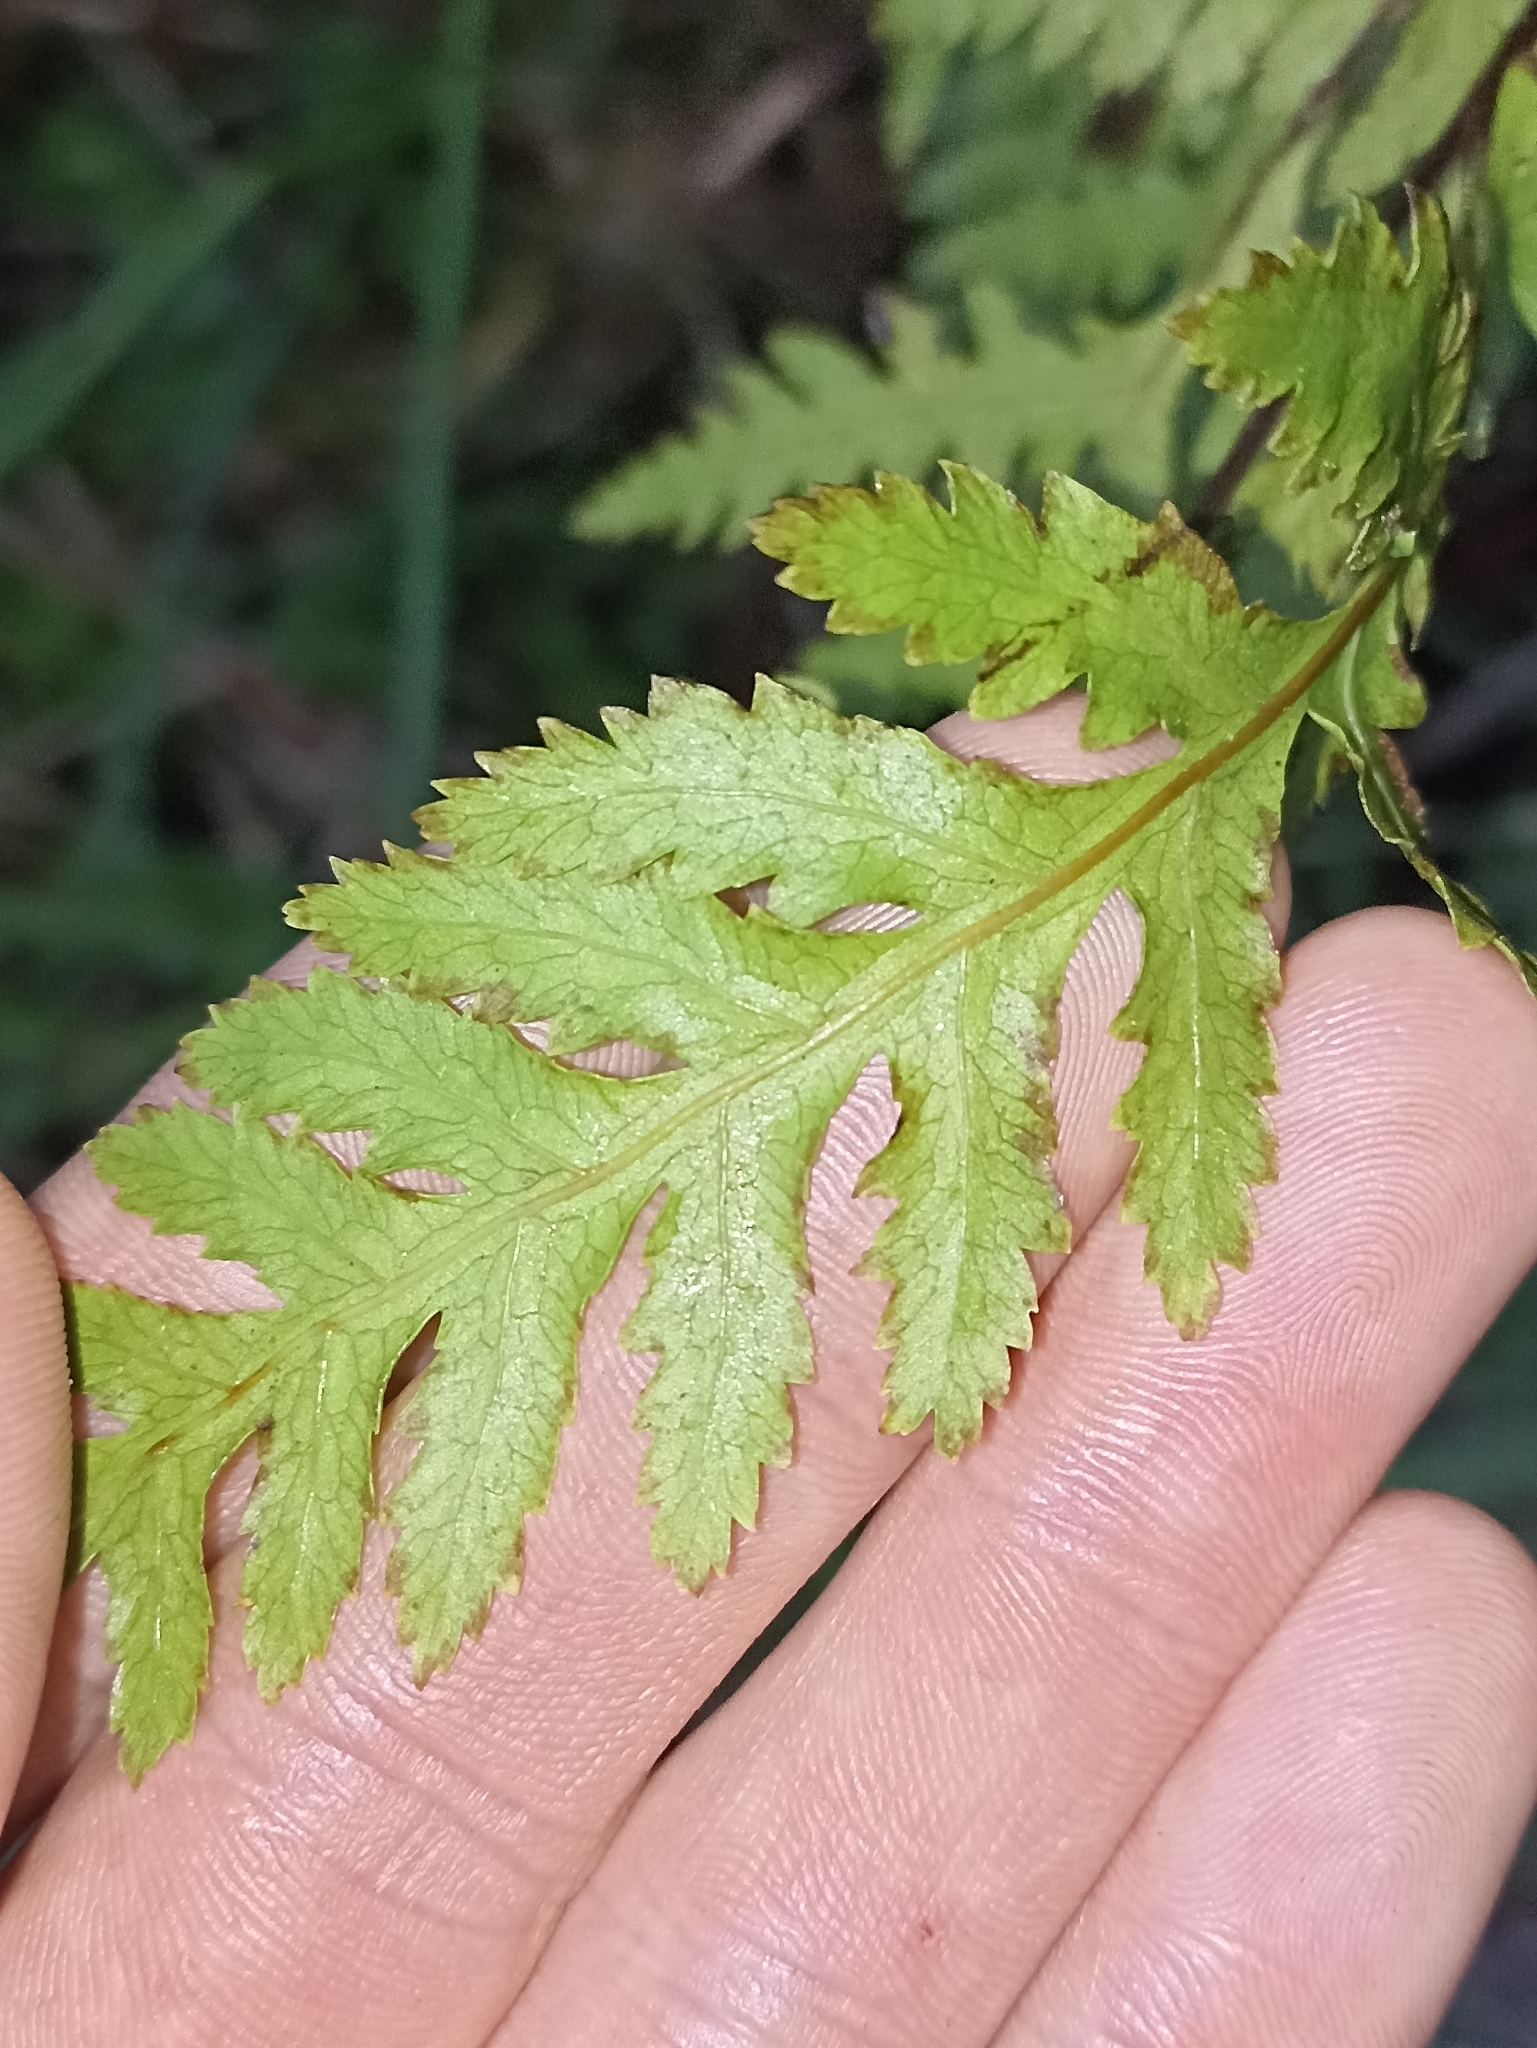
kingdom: Plantae
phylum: Tracheophyta
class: Polypodiopsida
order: Polypodiales
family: Pteridaceae
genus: Pteris
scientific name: Pteris macilenta
